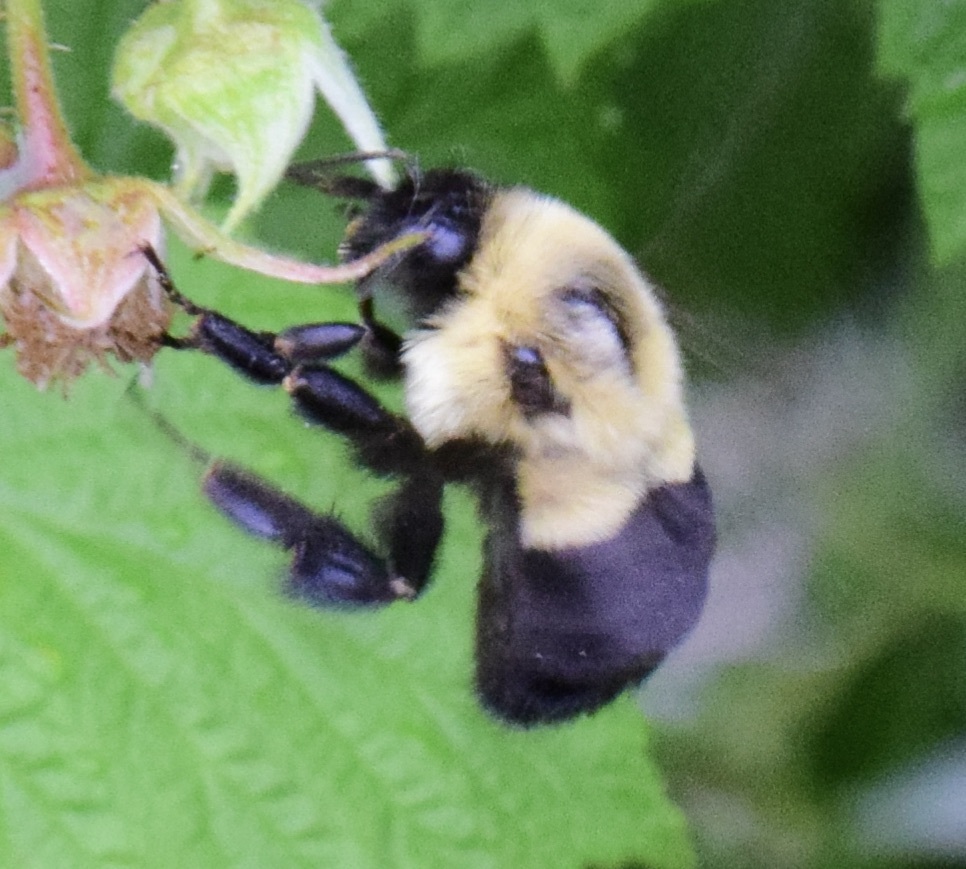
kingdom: Animalia
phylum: Arthropoda
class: Insecta
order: Hymenoptera
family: Apidae
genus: Bombus
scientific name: Bombus impatiens
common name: Common eastern bumble bee
